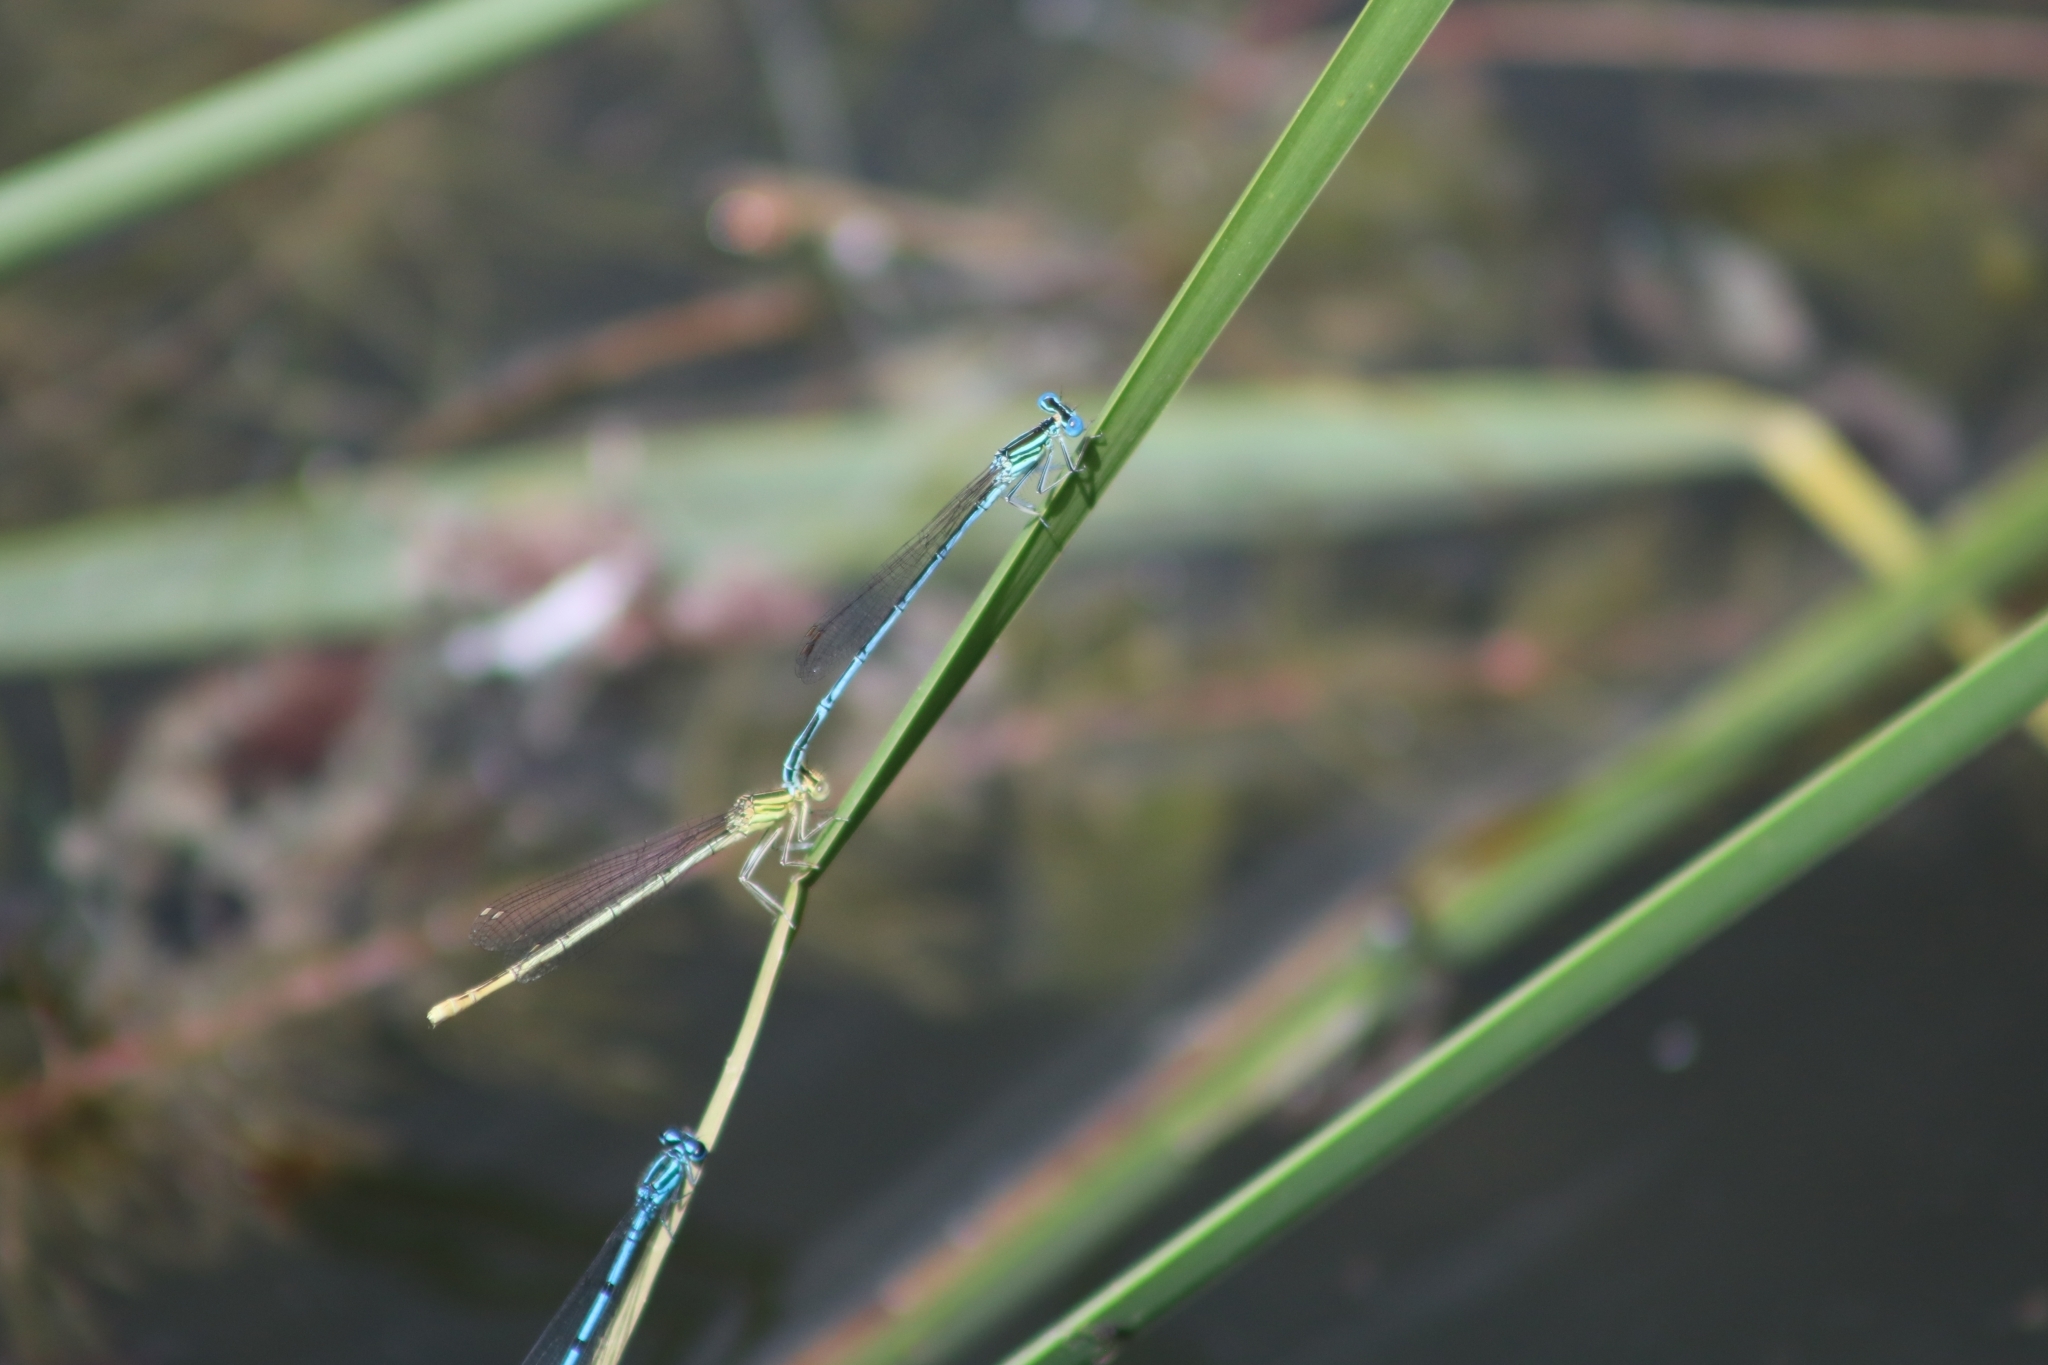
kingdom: Animalia
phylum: Arthropoda
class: Insecta
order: Odonata
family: Platycnemididae
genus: Platycnemis
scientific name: Platycnemis pennipes
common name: White-legged damselfly
